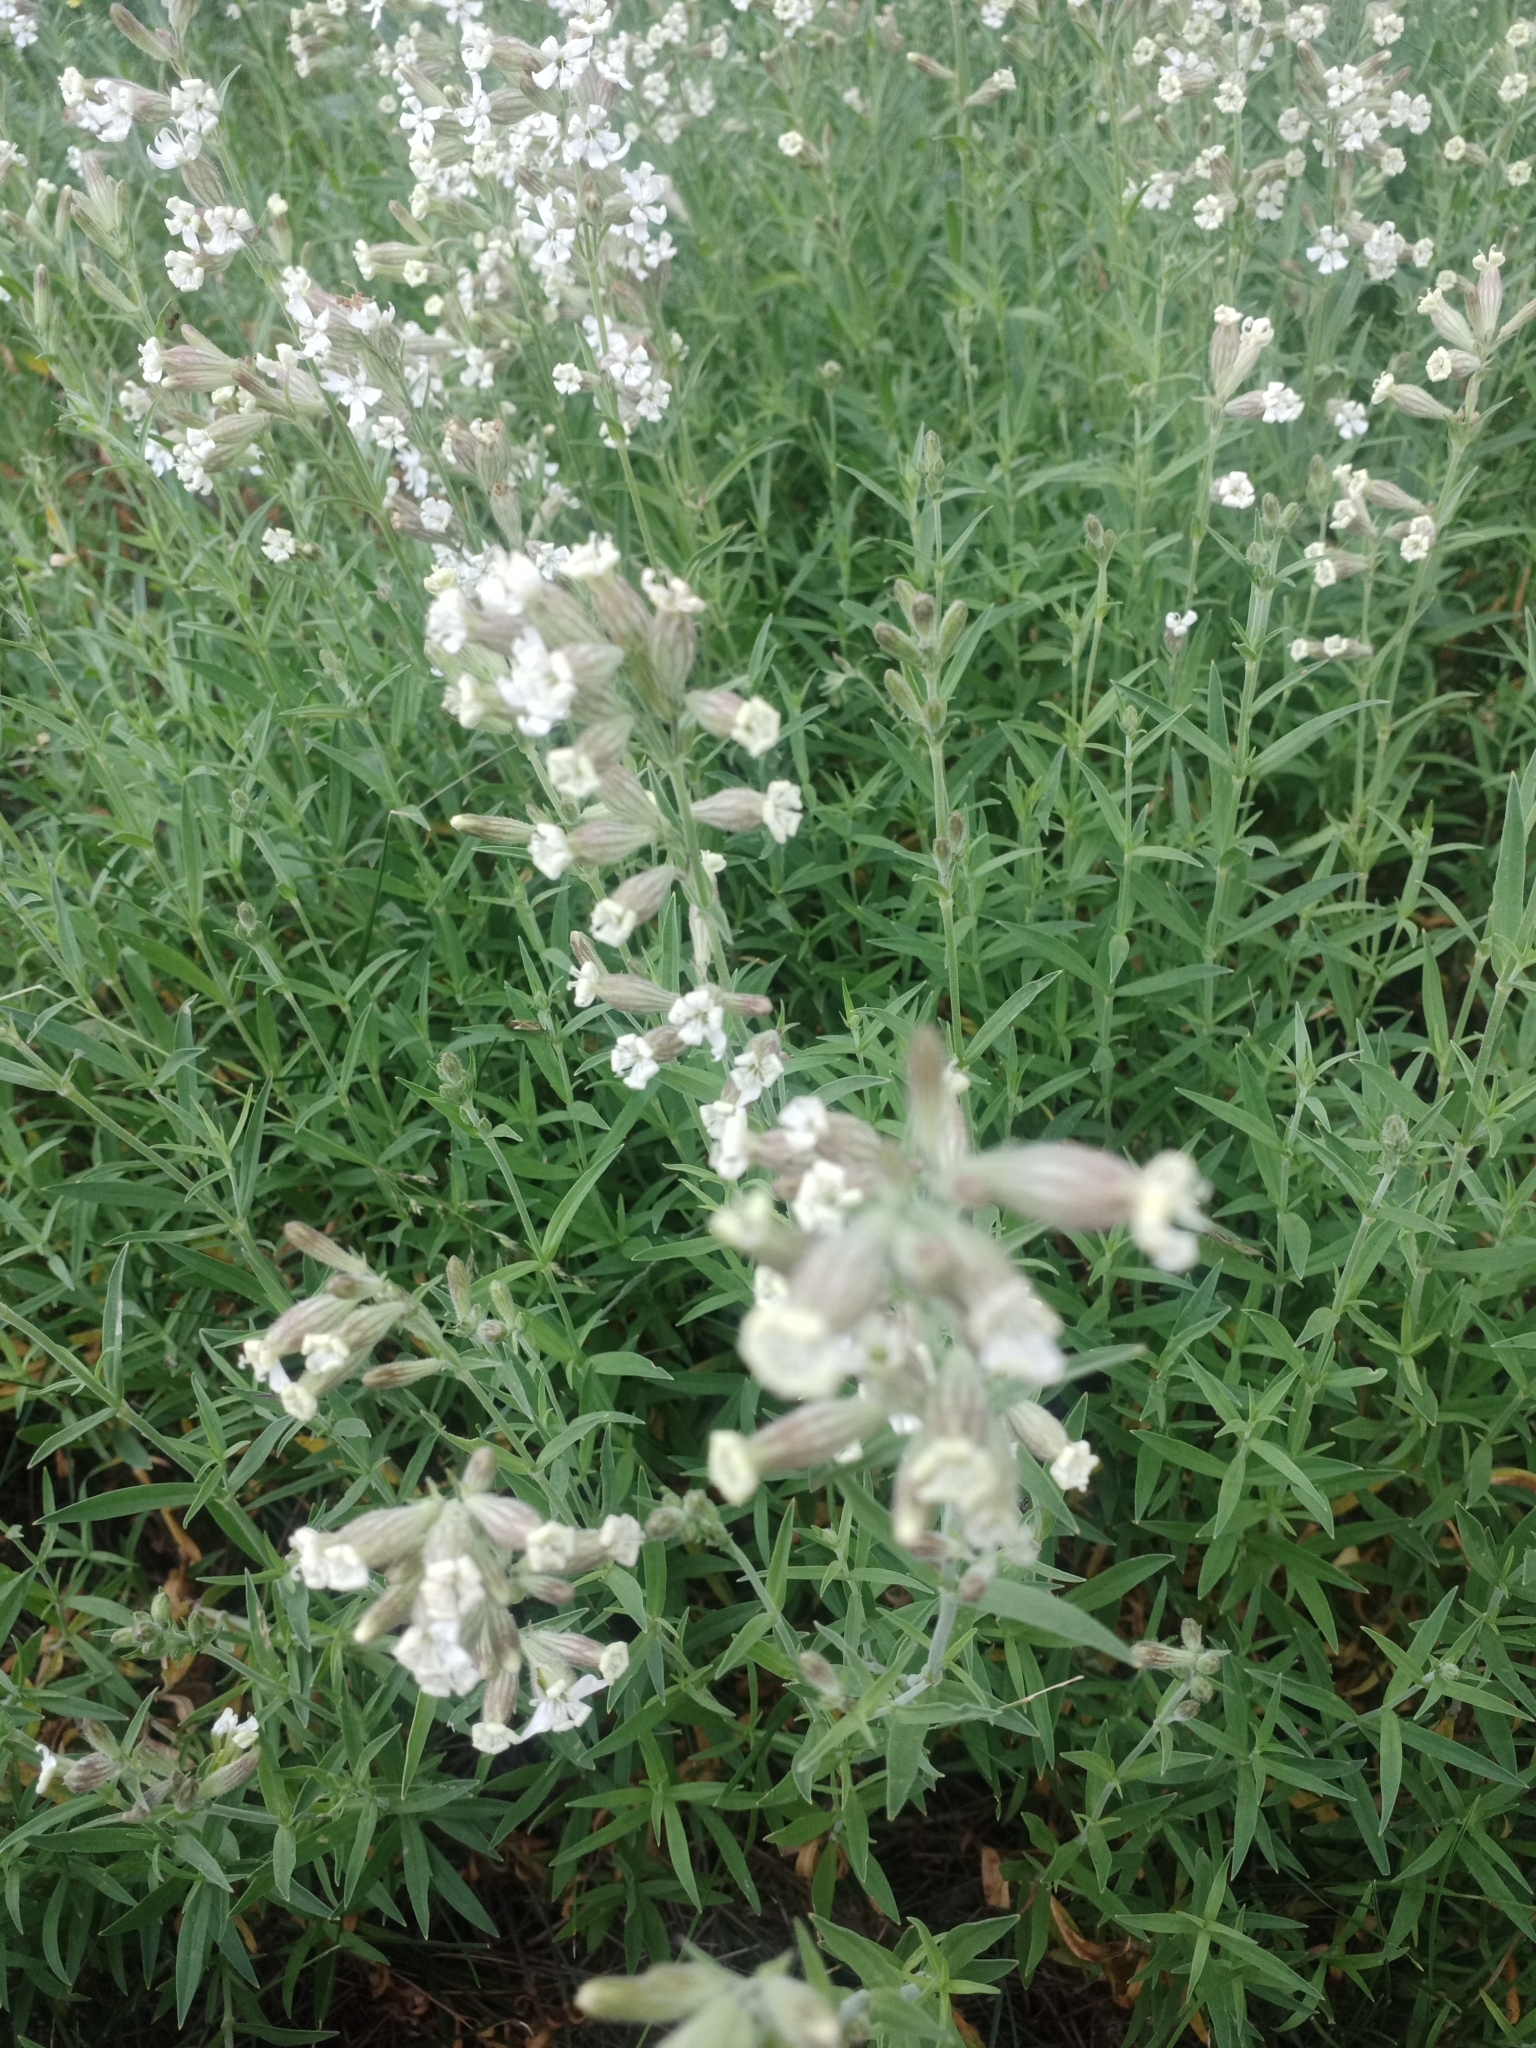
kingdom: Plantae
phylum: Tracheophyta
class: Magnoliopsida
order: Caryophyllales
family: Caryophyllaceae
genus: Silene
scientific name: Silene amoena
